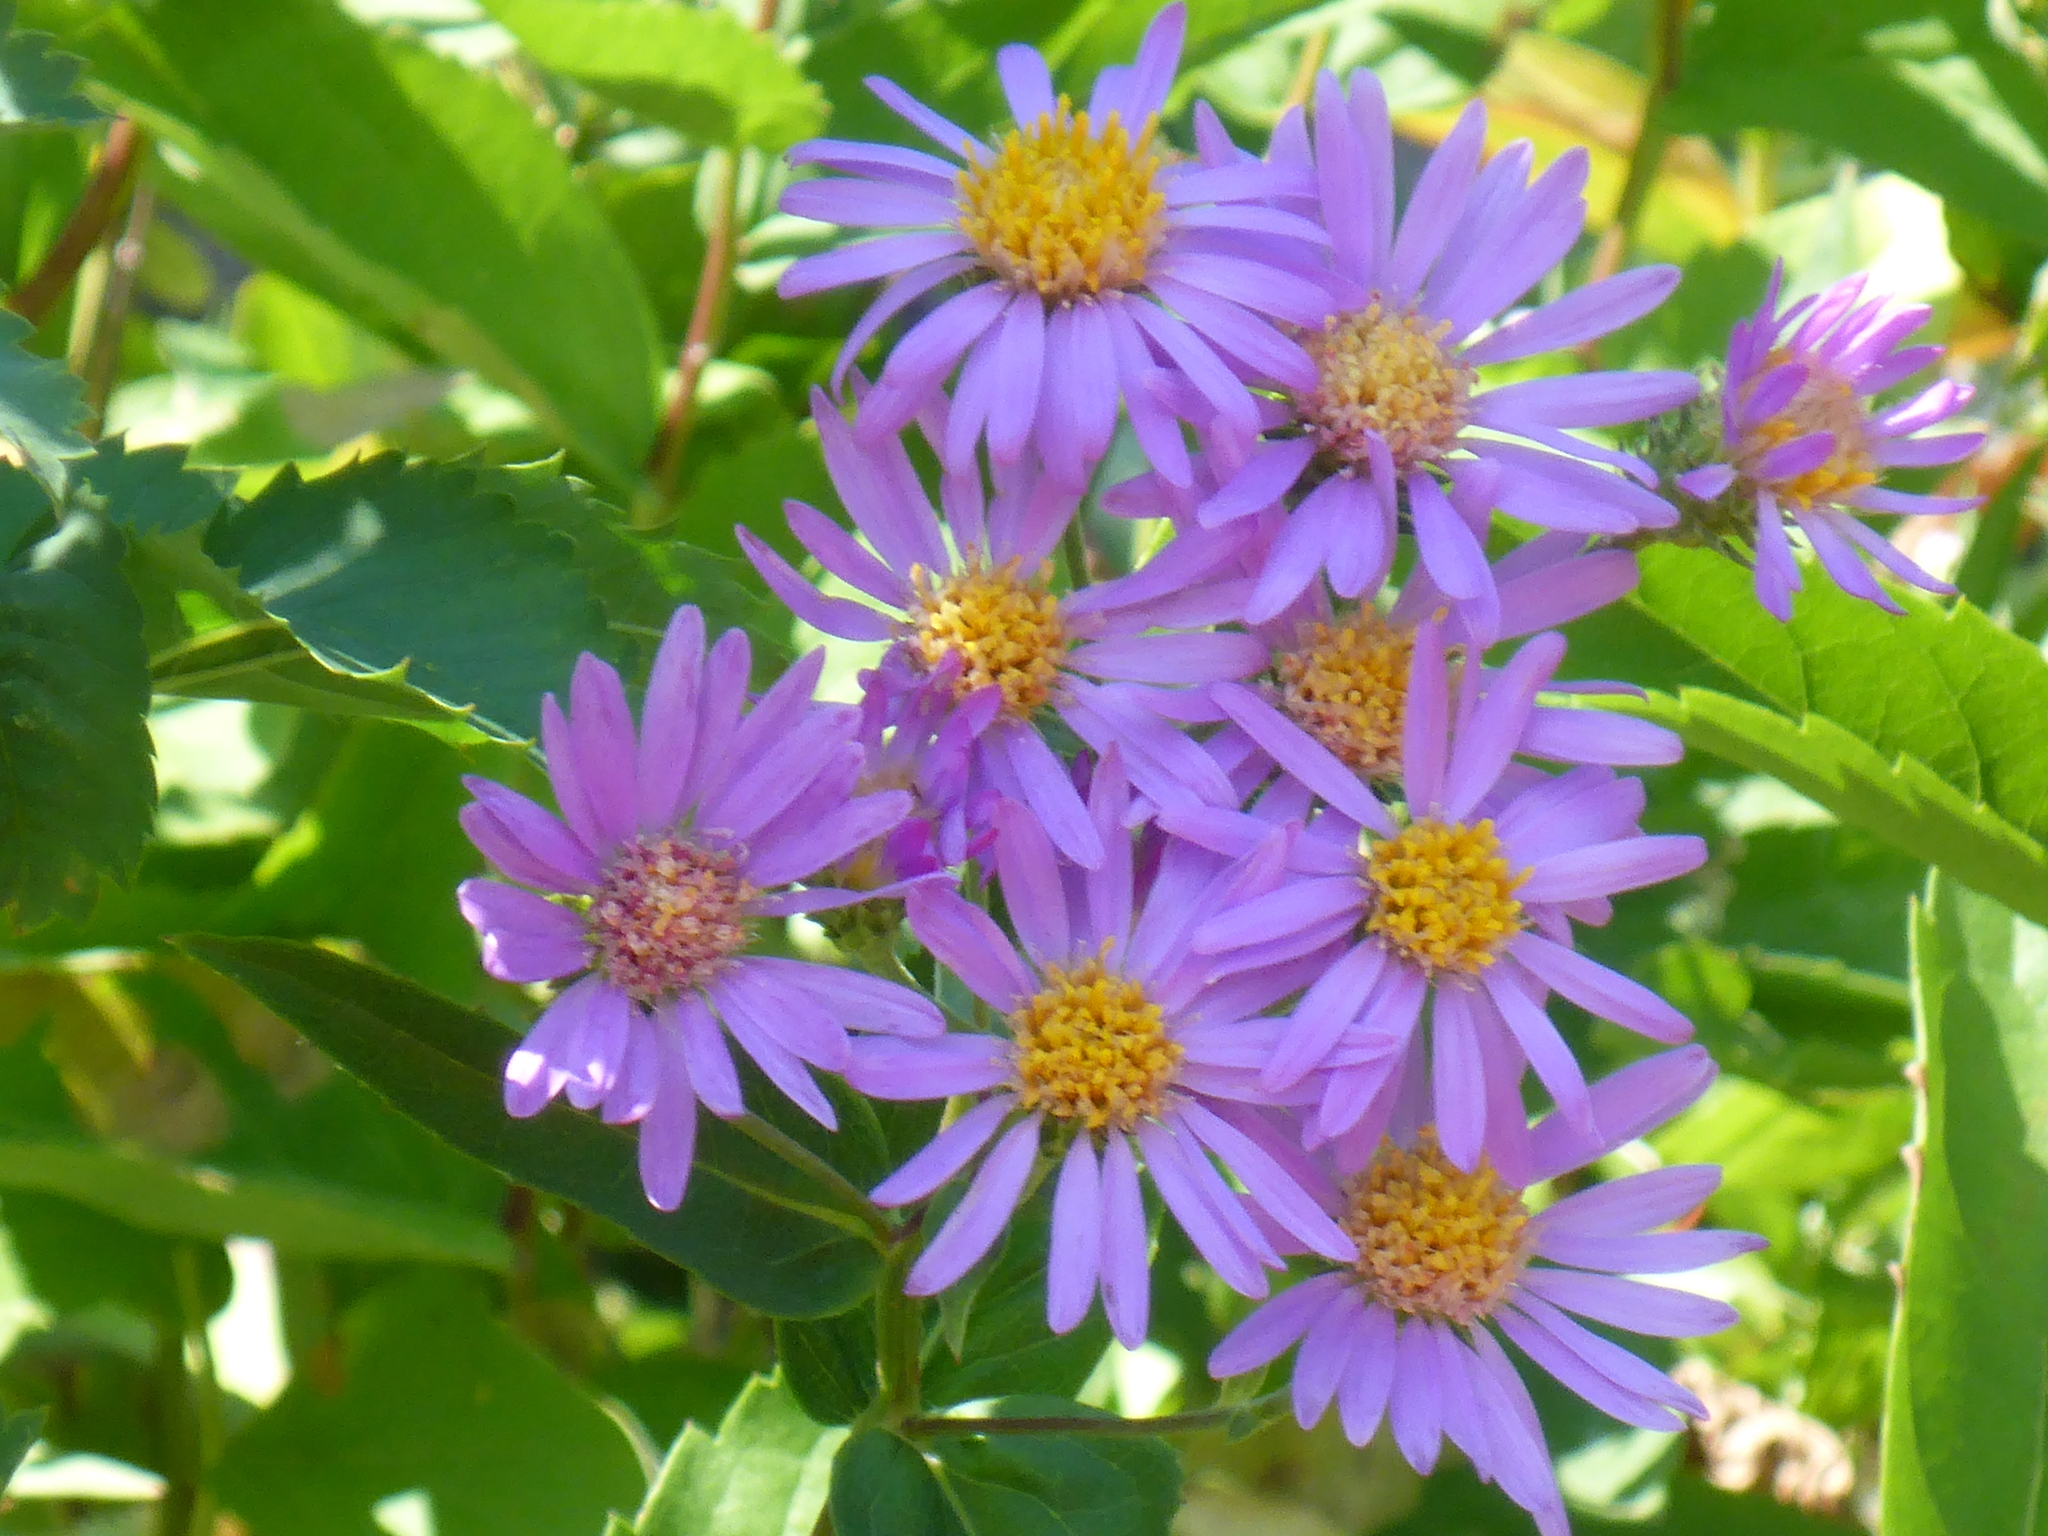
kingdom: Plantae
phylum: Tracheophyta
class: Magnoliopsida
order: Asterales
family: Asteraceae
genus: Eurybia
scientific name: Eurybia conspicua
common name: Showy aster
